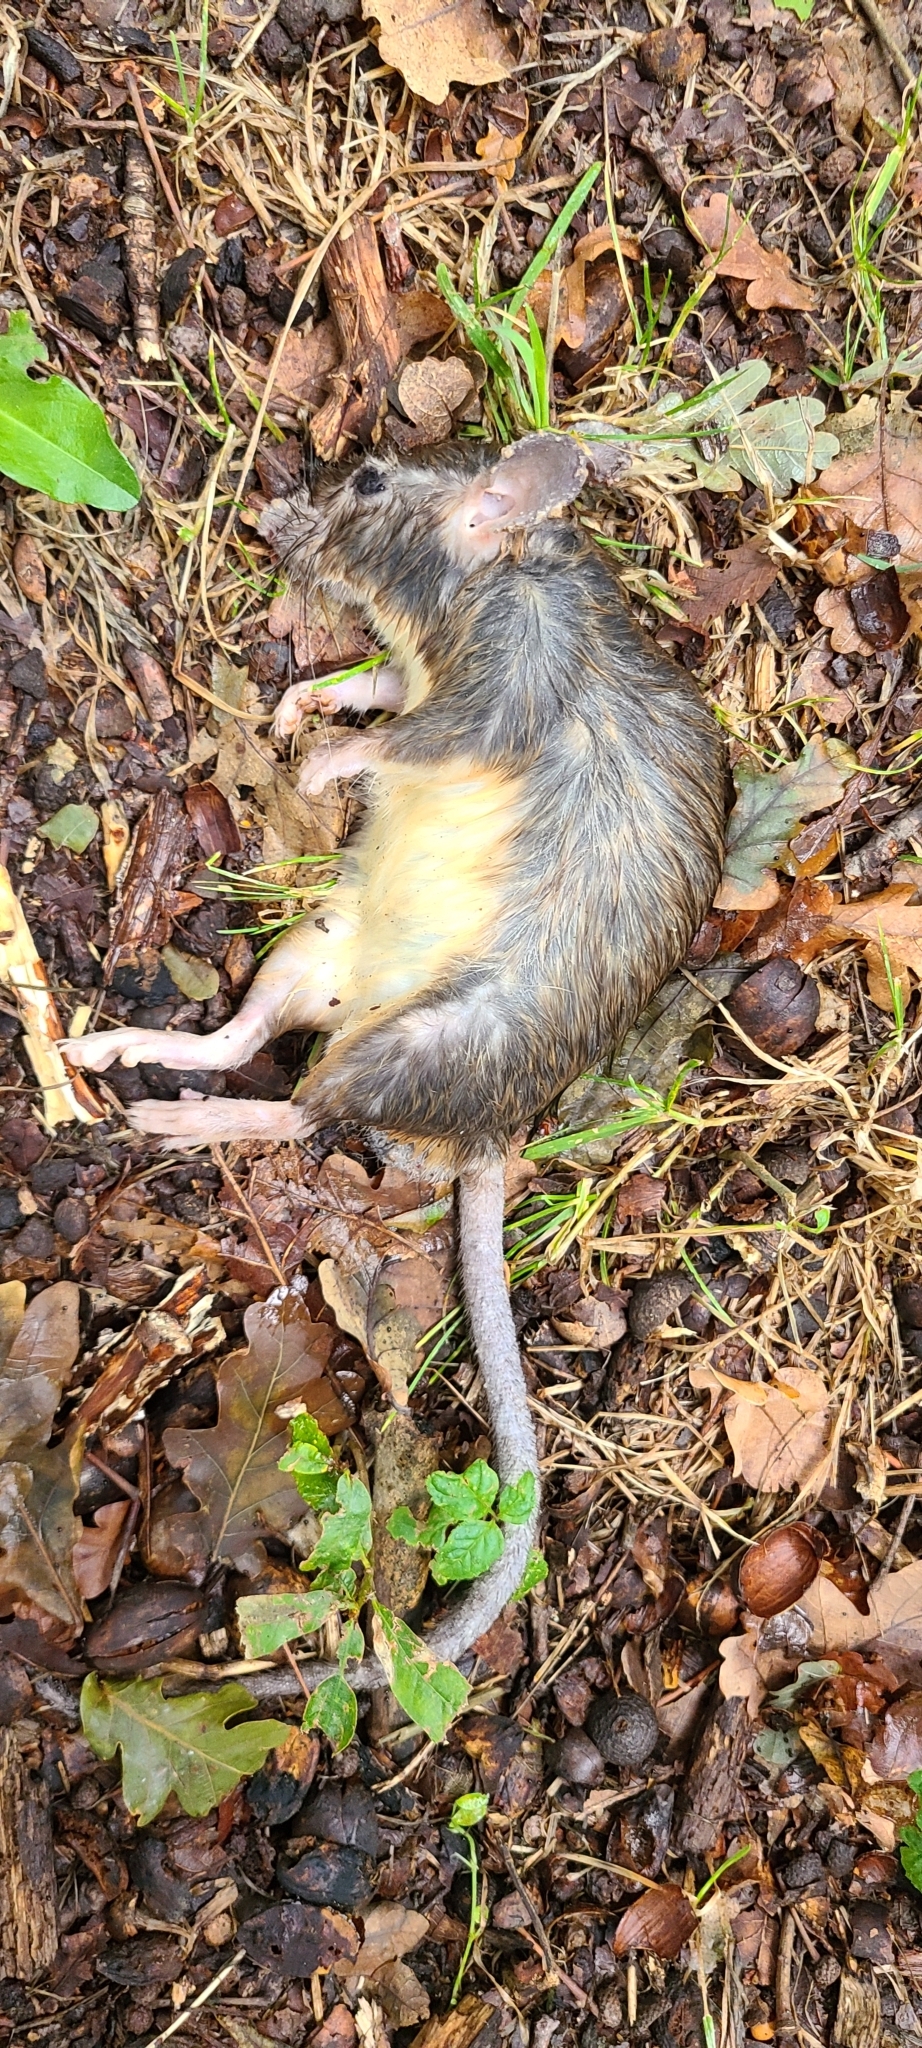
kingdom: Animalia
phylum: Chordata
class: Mammalia
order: Rodentia
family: Muridae
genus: Rattus
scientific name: Rattus rattus
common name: Black rat
